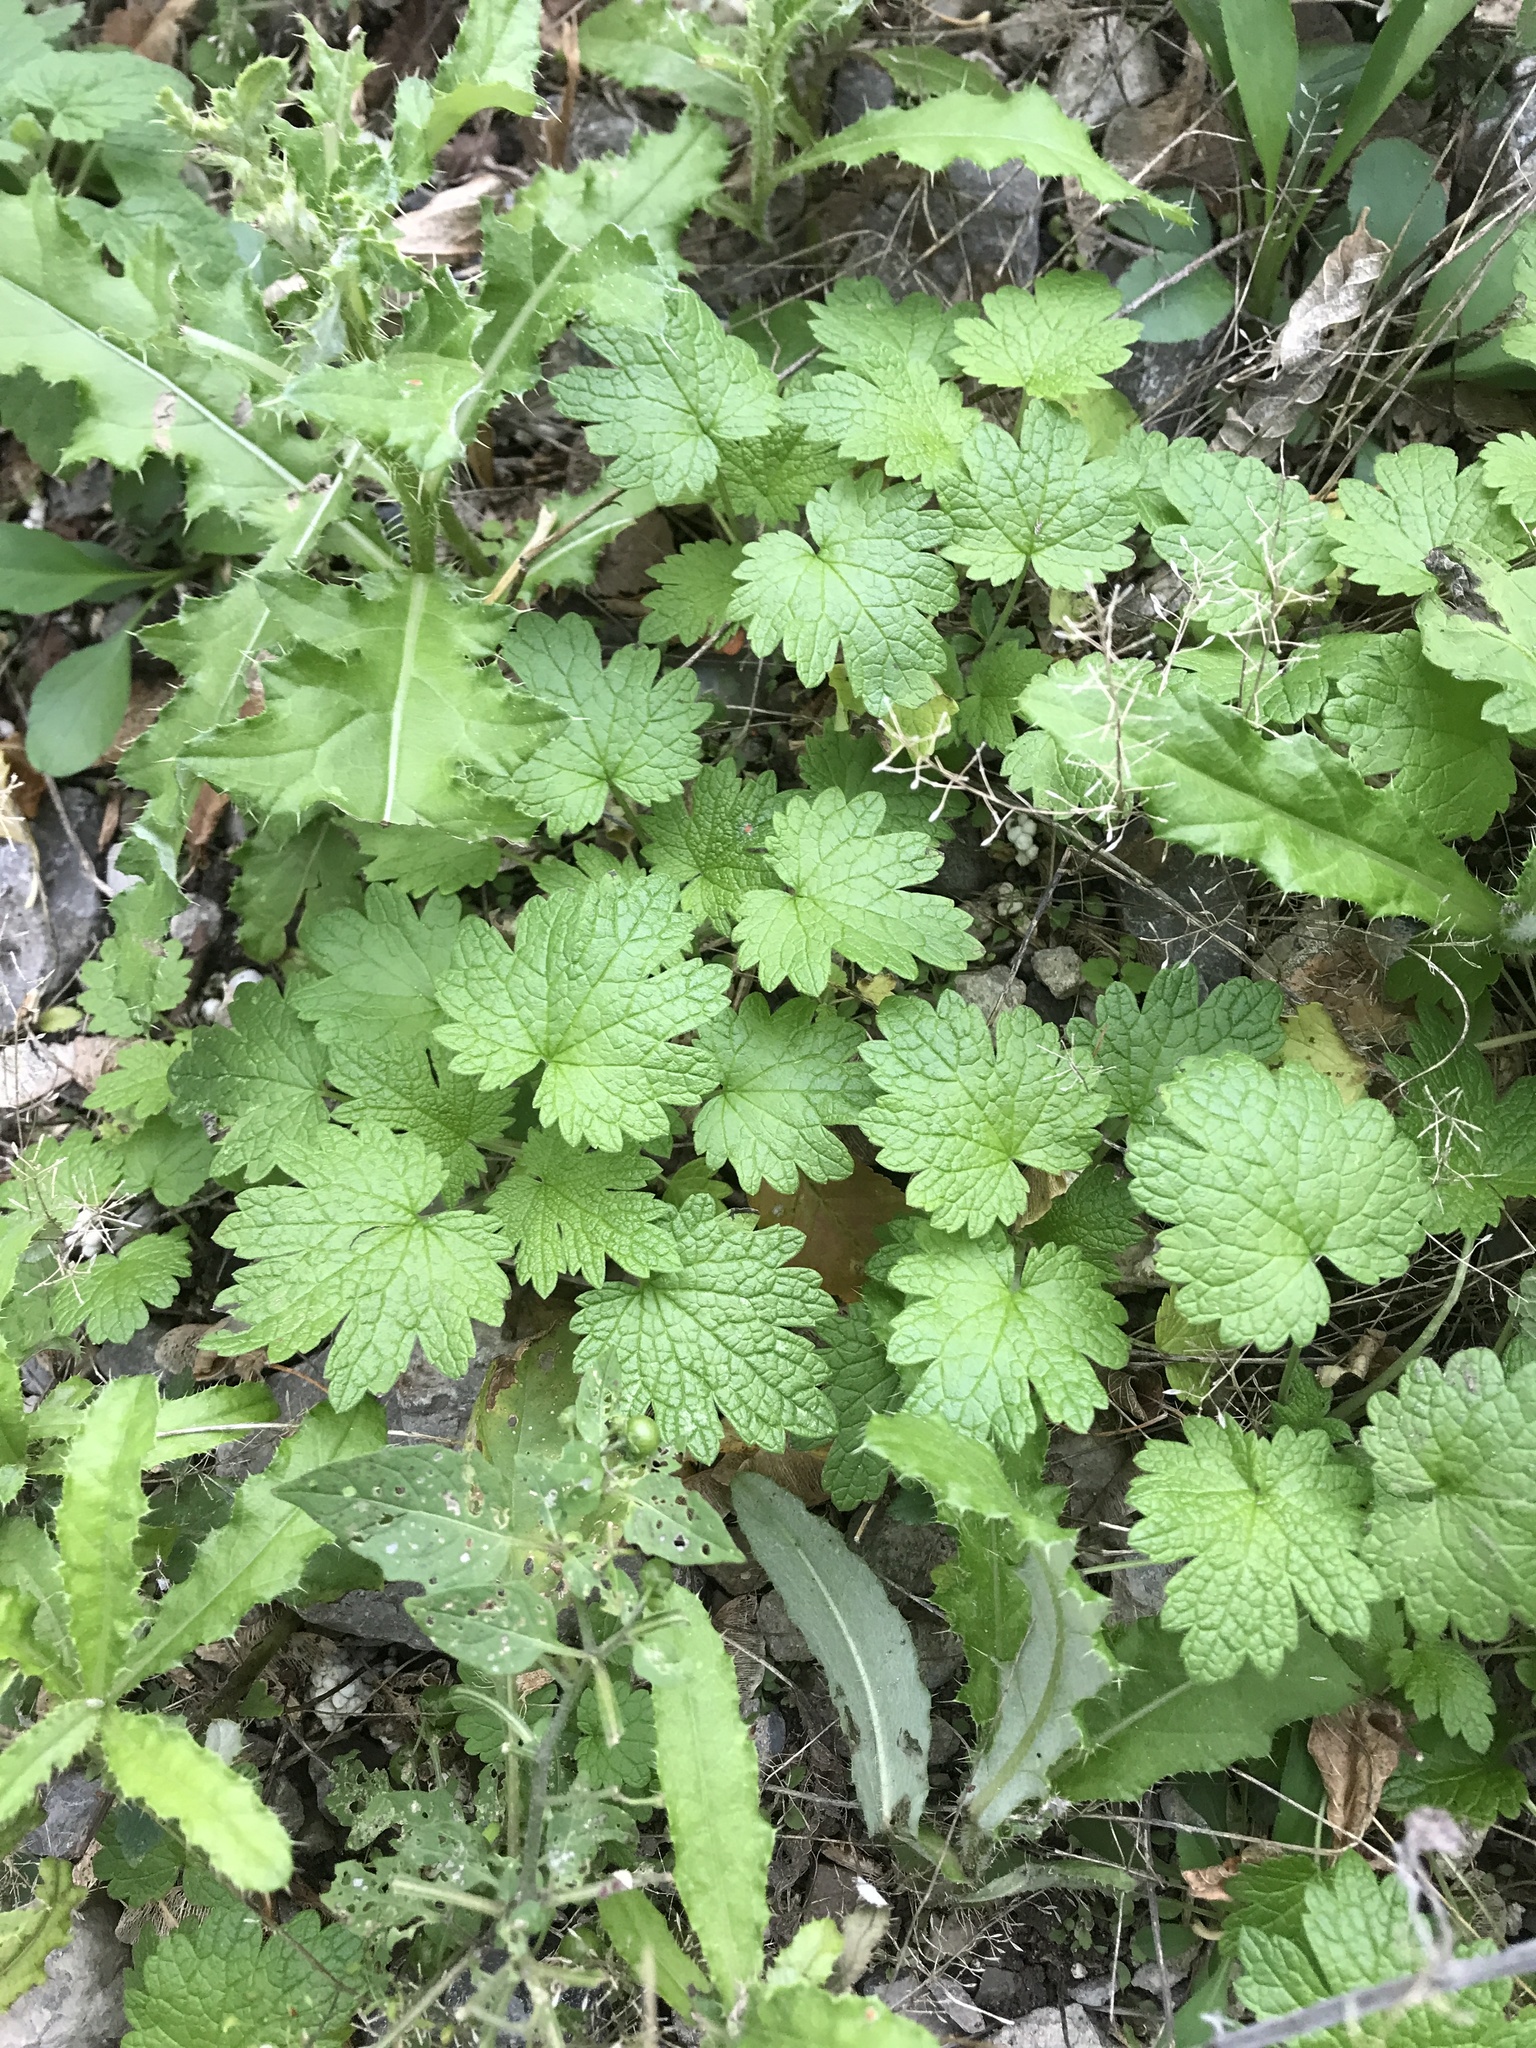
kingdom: Plantae
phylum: Tracheophyta
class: Magnoliopsida
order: Lamiales
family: Lamiaceae
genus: Leonurus
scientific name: Leonurus cardiaca
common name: Motherwort
